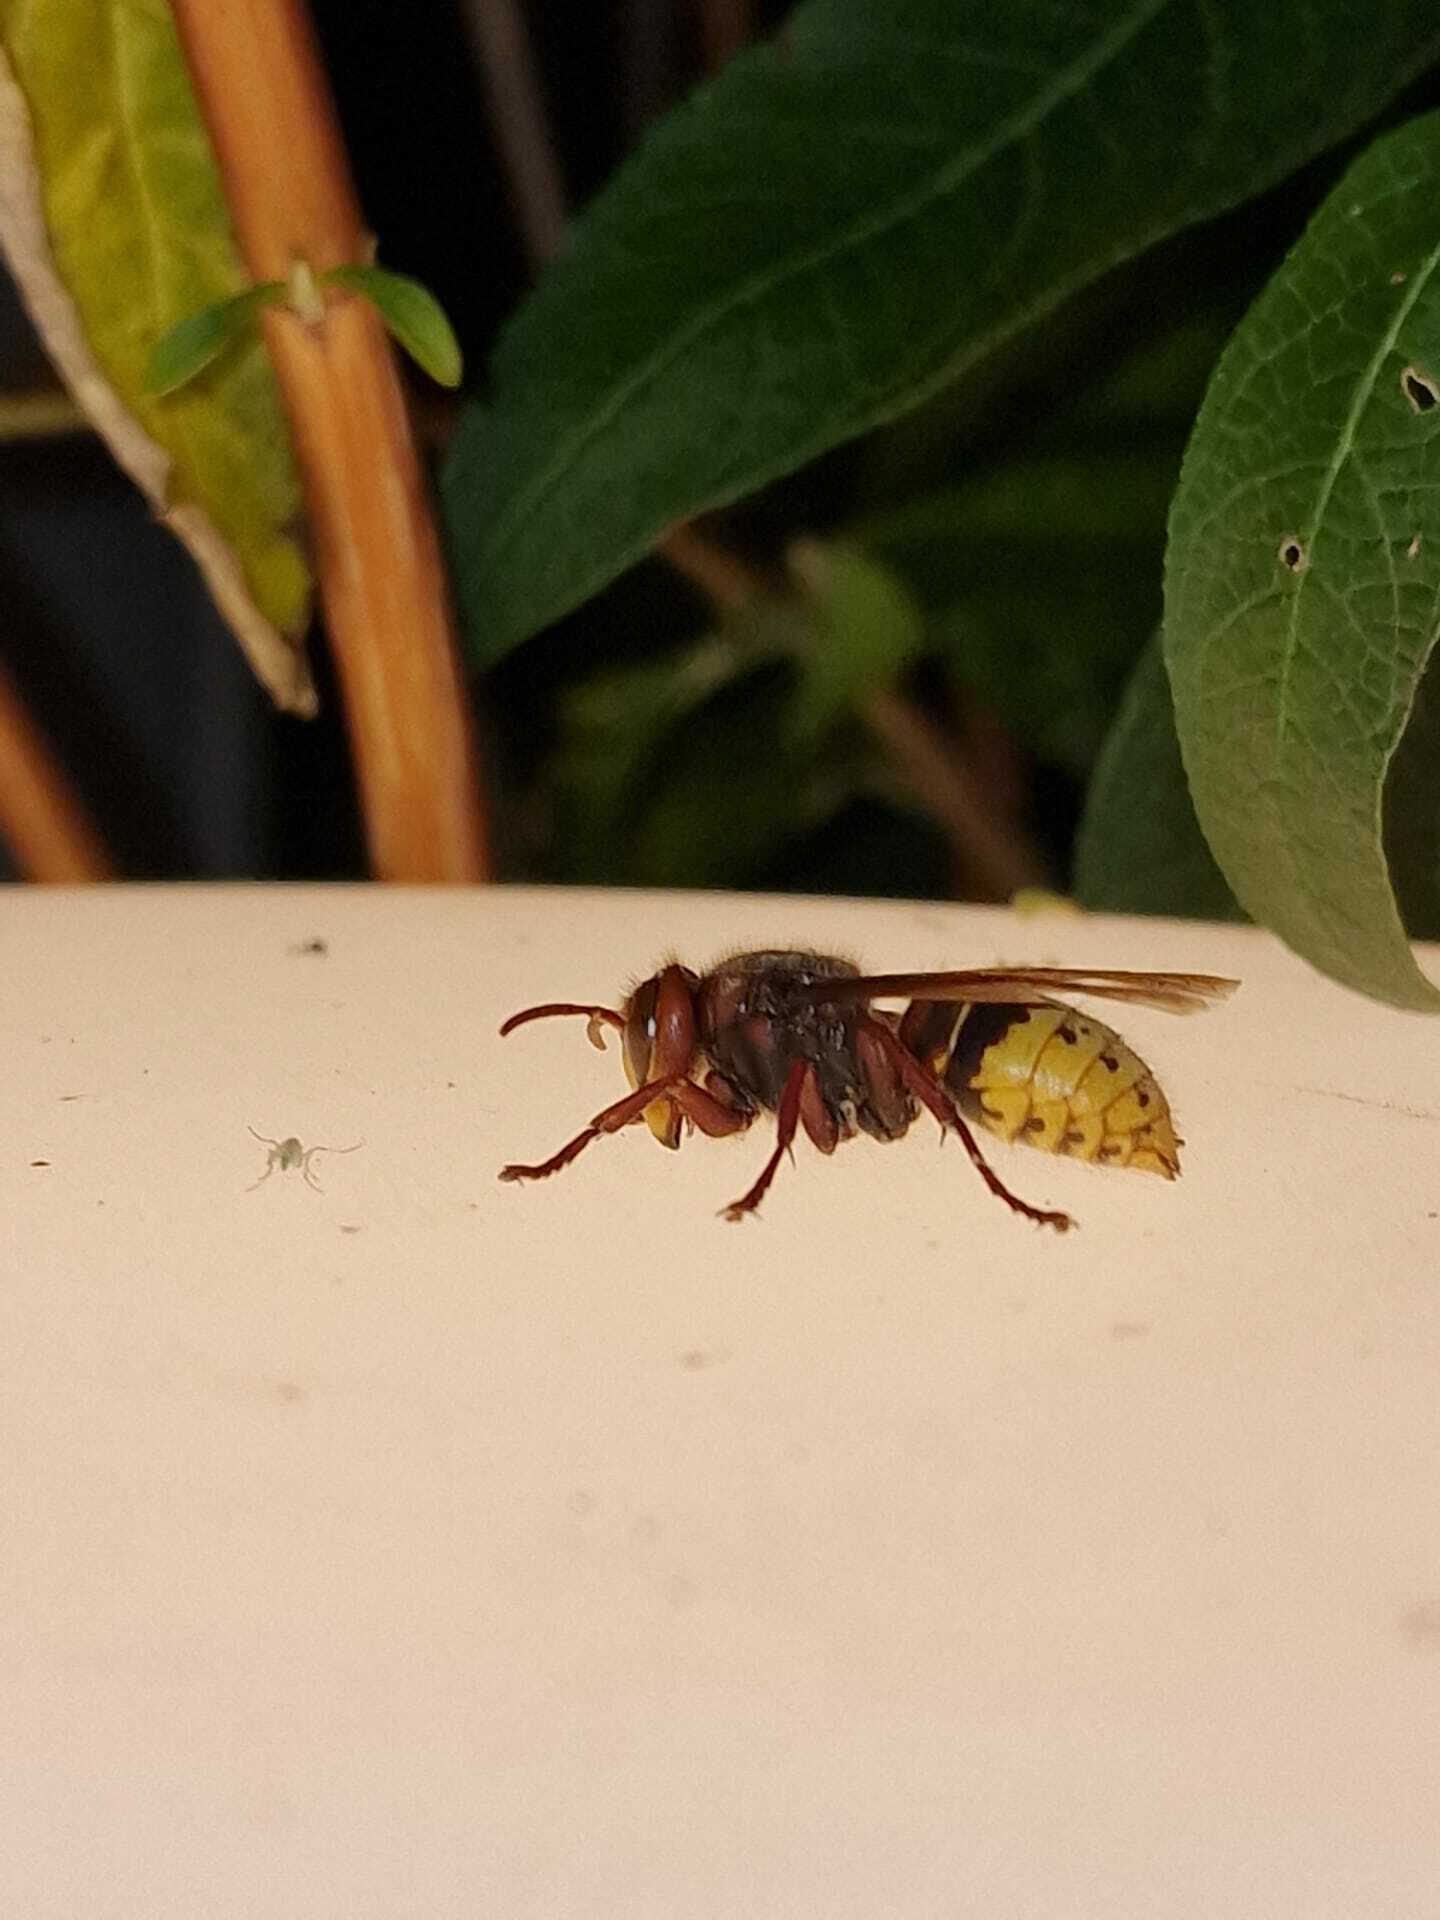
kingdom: Animalia
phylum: Arthropoda
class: Insecta
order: Hymenoptera
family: Vespidae
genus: Vespa
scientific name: Vespa crabro
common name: Hornet
